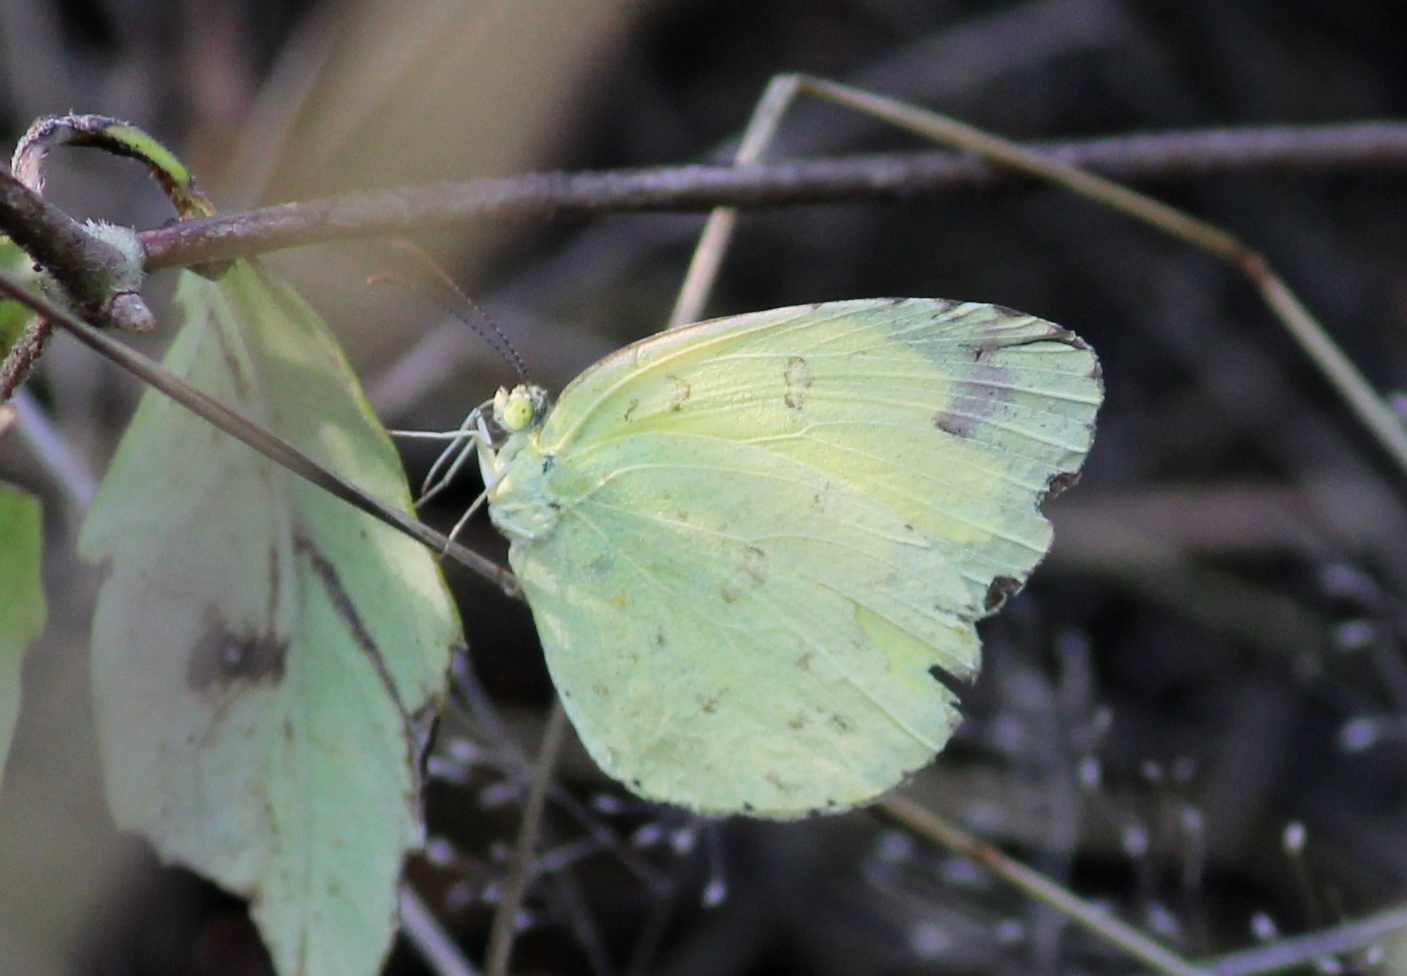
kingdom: Animalia
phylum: Arthropoda
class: Insecta
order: Lepidoptera
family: Pieridae
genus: Eurema
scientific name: Eurema hecabe
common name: Pale grass yellow
